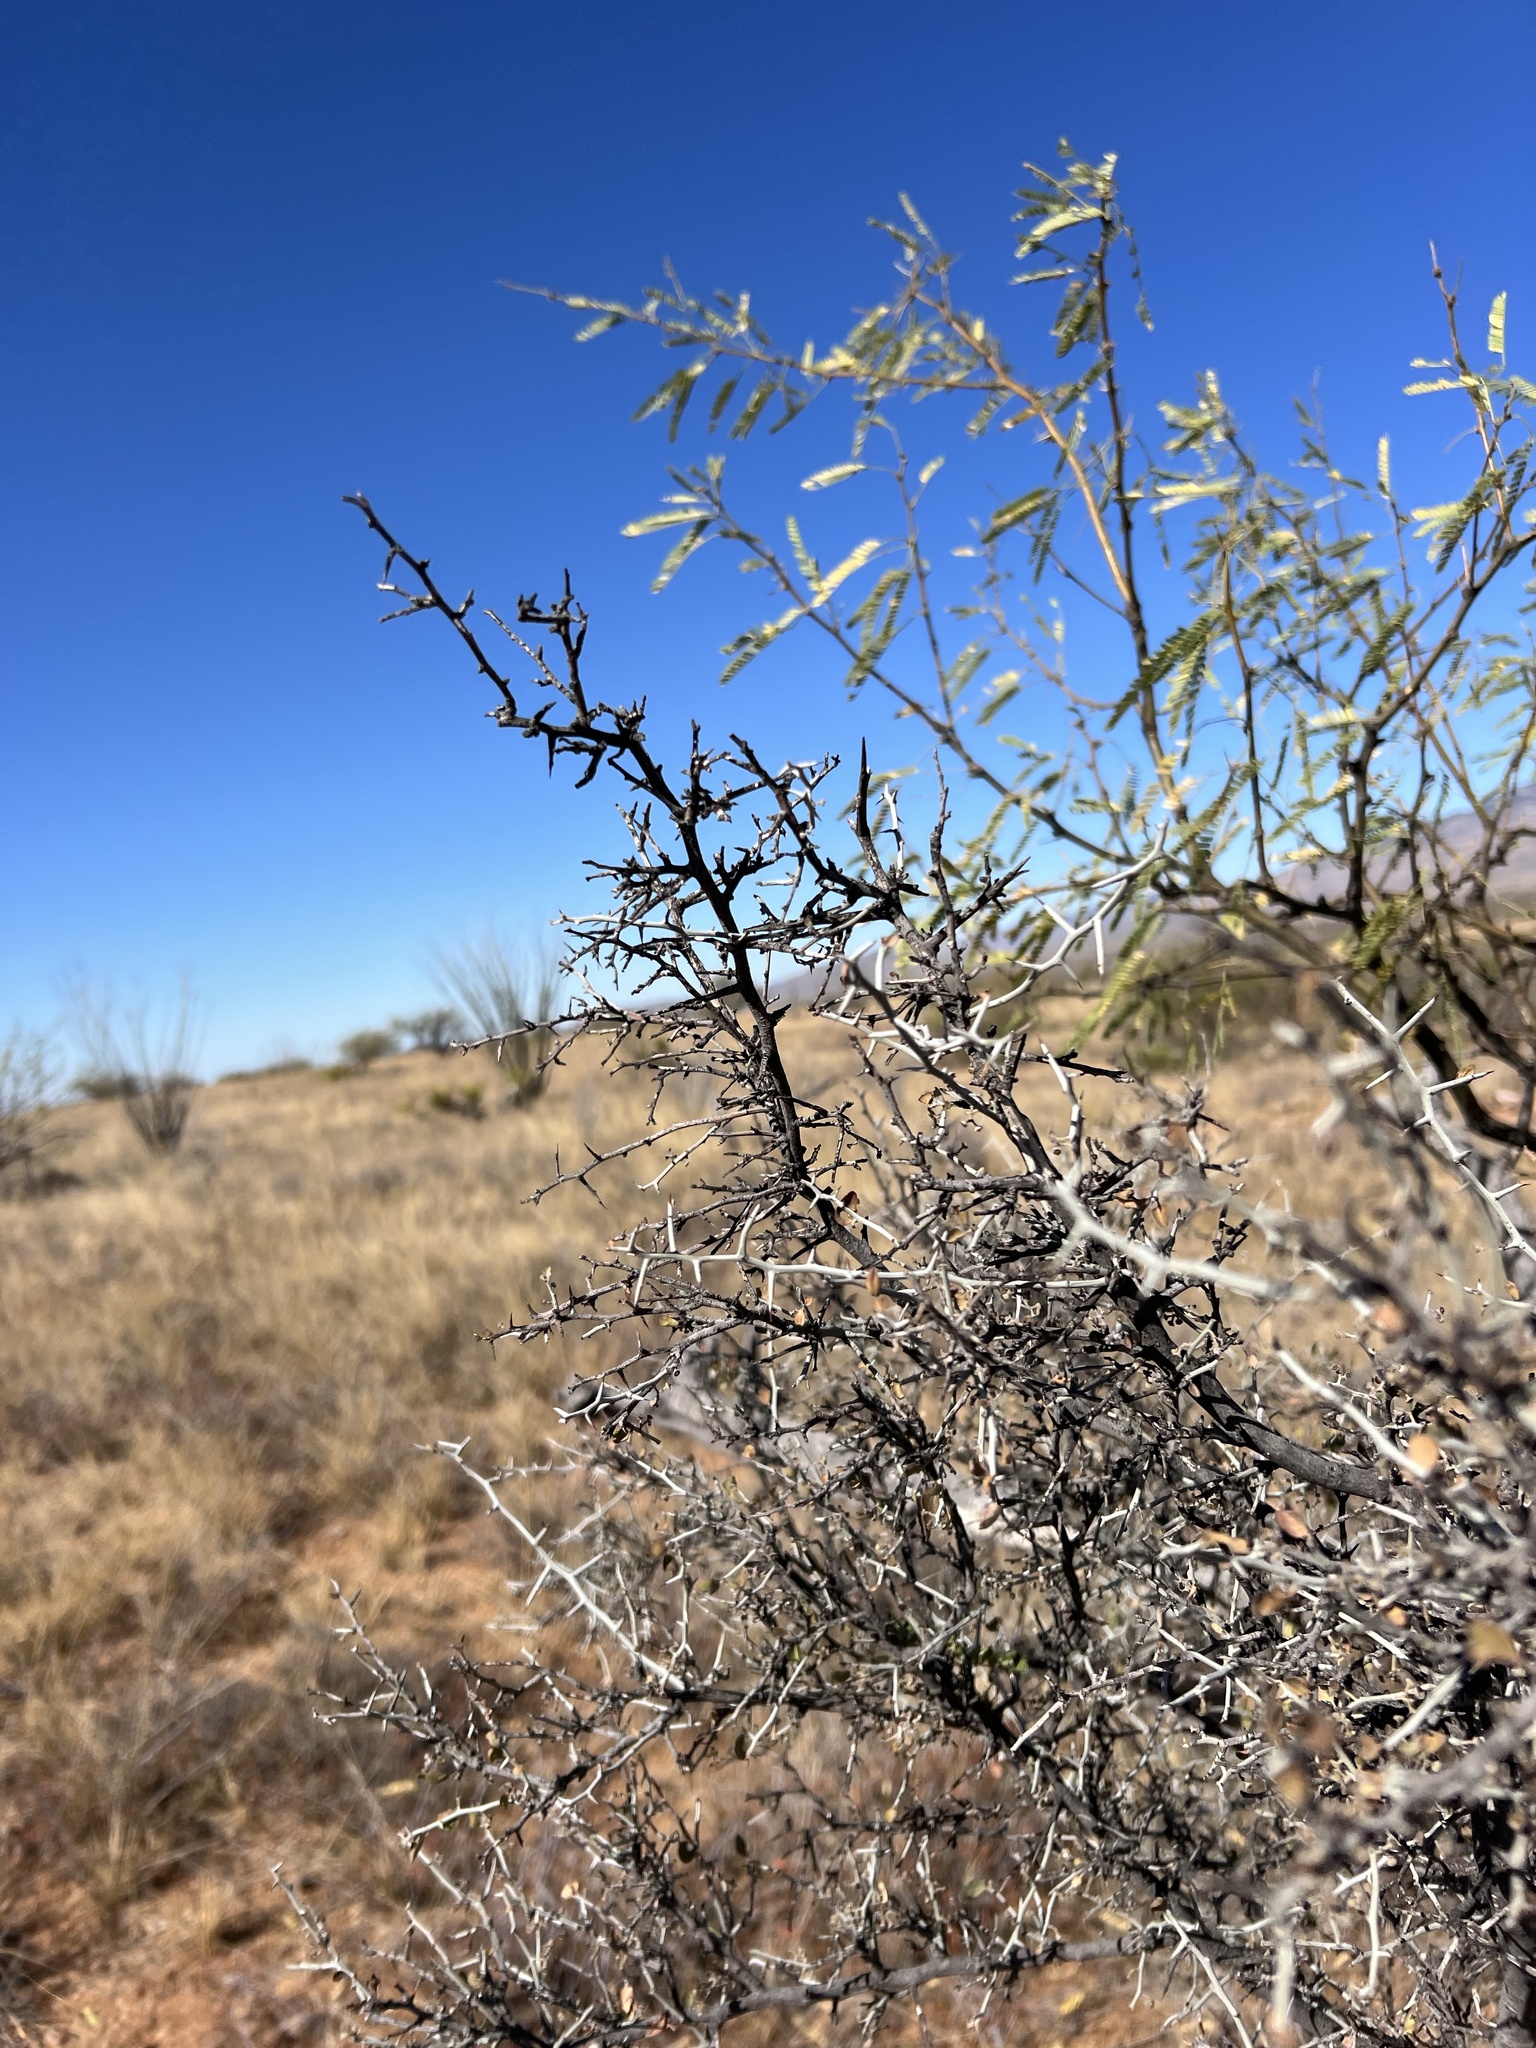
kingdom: Plantae
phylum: Tracheophyta
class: Magnoliopsida
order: Fabales
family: Fabaceae
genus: Prosopis
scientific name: Prosopis velutina
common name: Velvet mesquite
